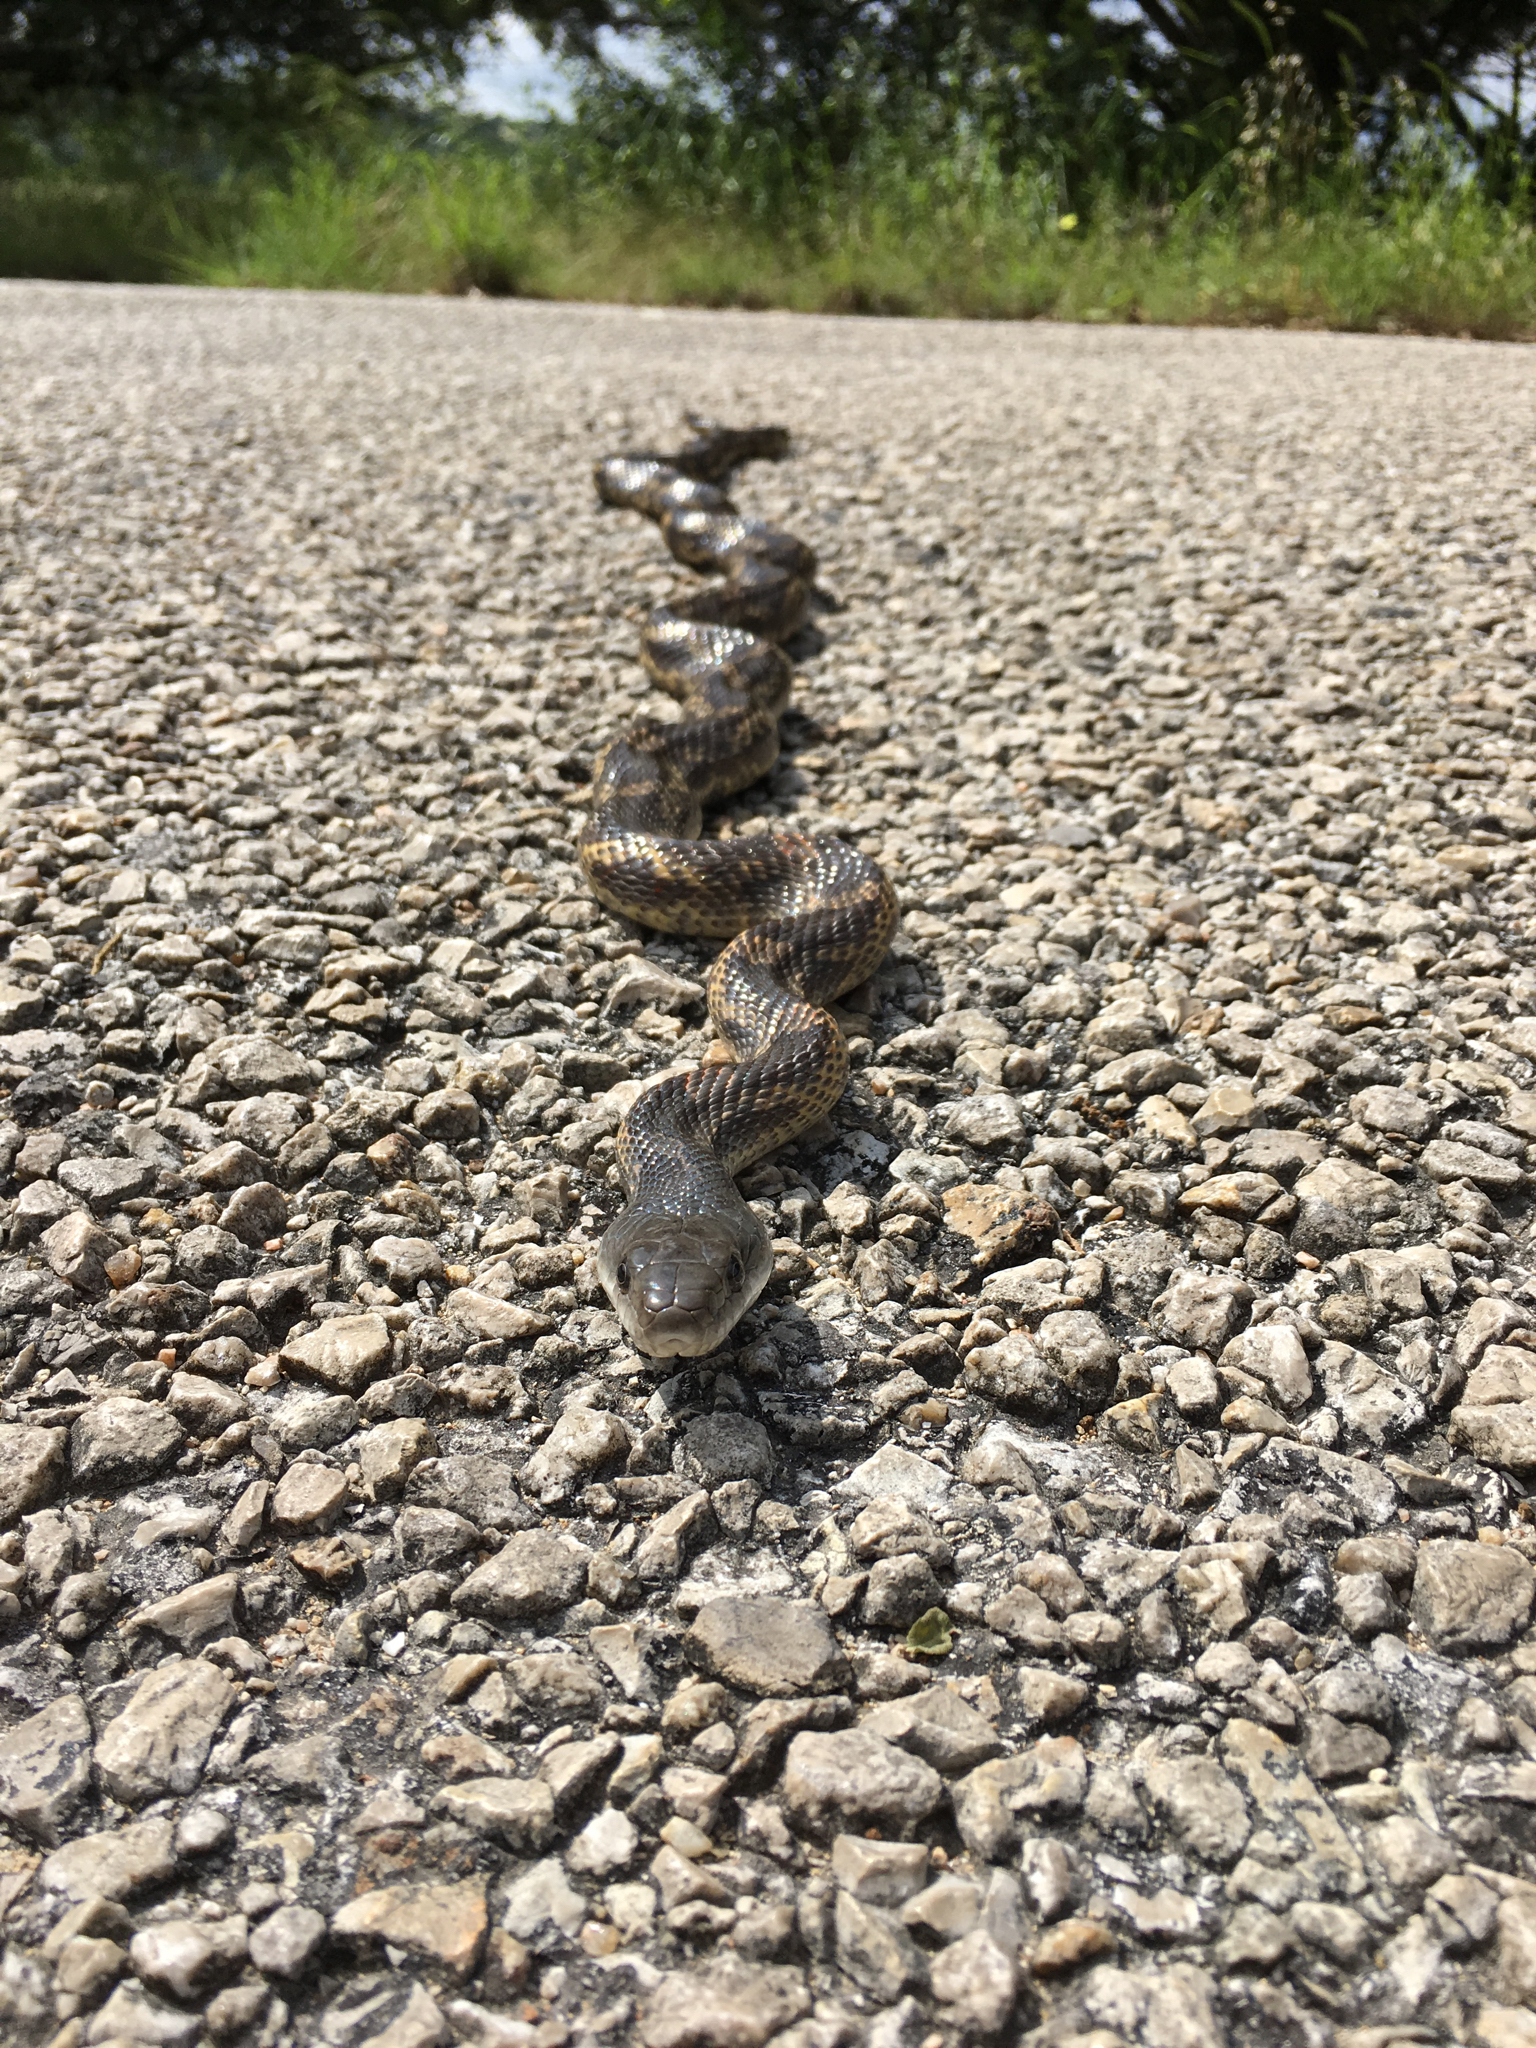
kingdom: Animalia
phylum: Chordata
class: Squamata
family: Colubridae
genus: Pantherophis
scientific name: Pantherophis obsoletus
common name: Black rat snake
